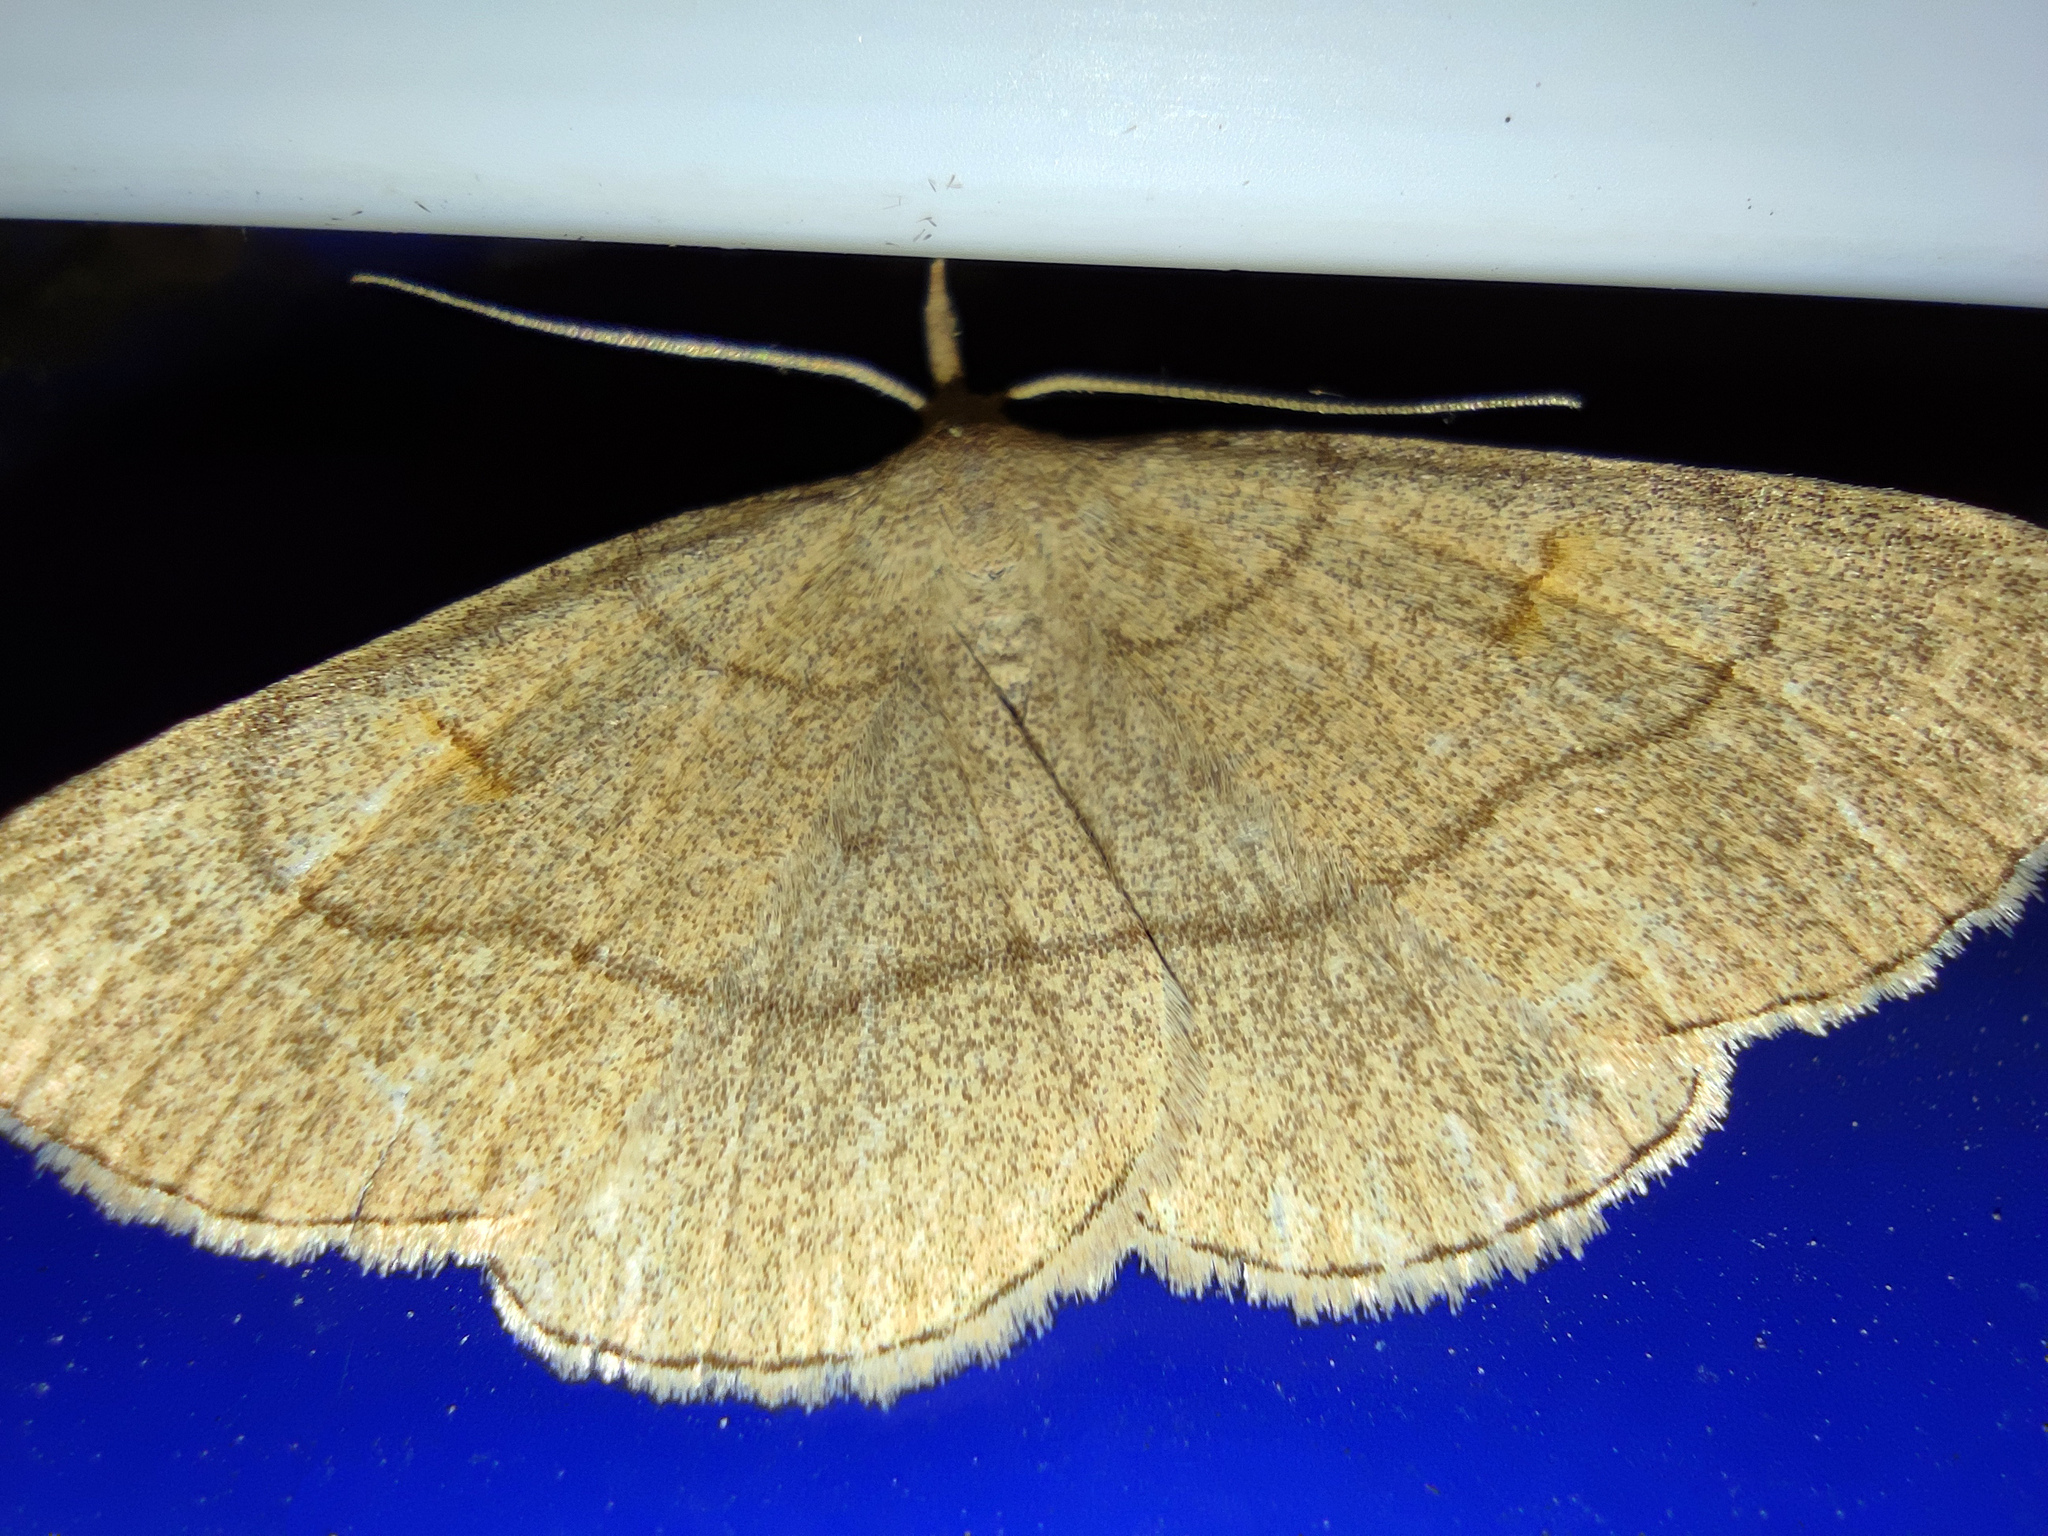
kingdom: Animalia
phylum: Arthropoda
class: Insecta
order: Lepidoptera
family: Erebidae
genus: Paracolax
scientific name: Paracolax tristalis
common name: Clay fan-foot
